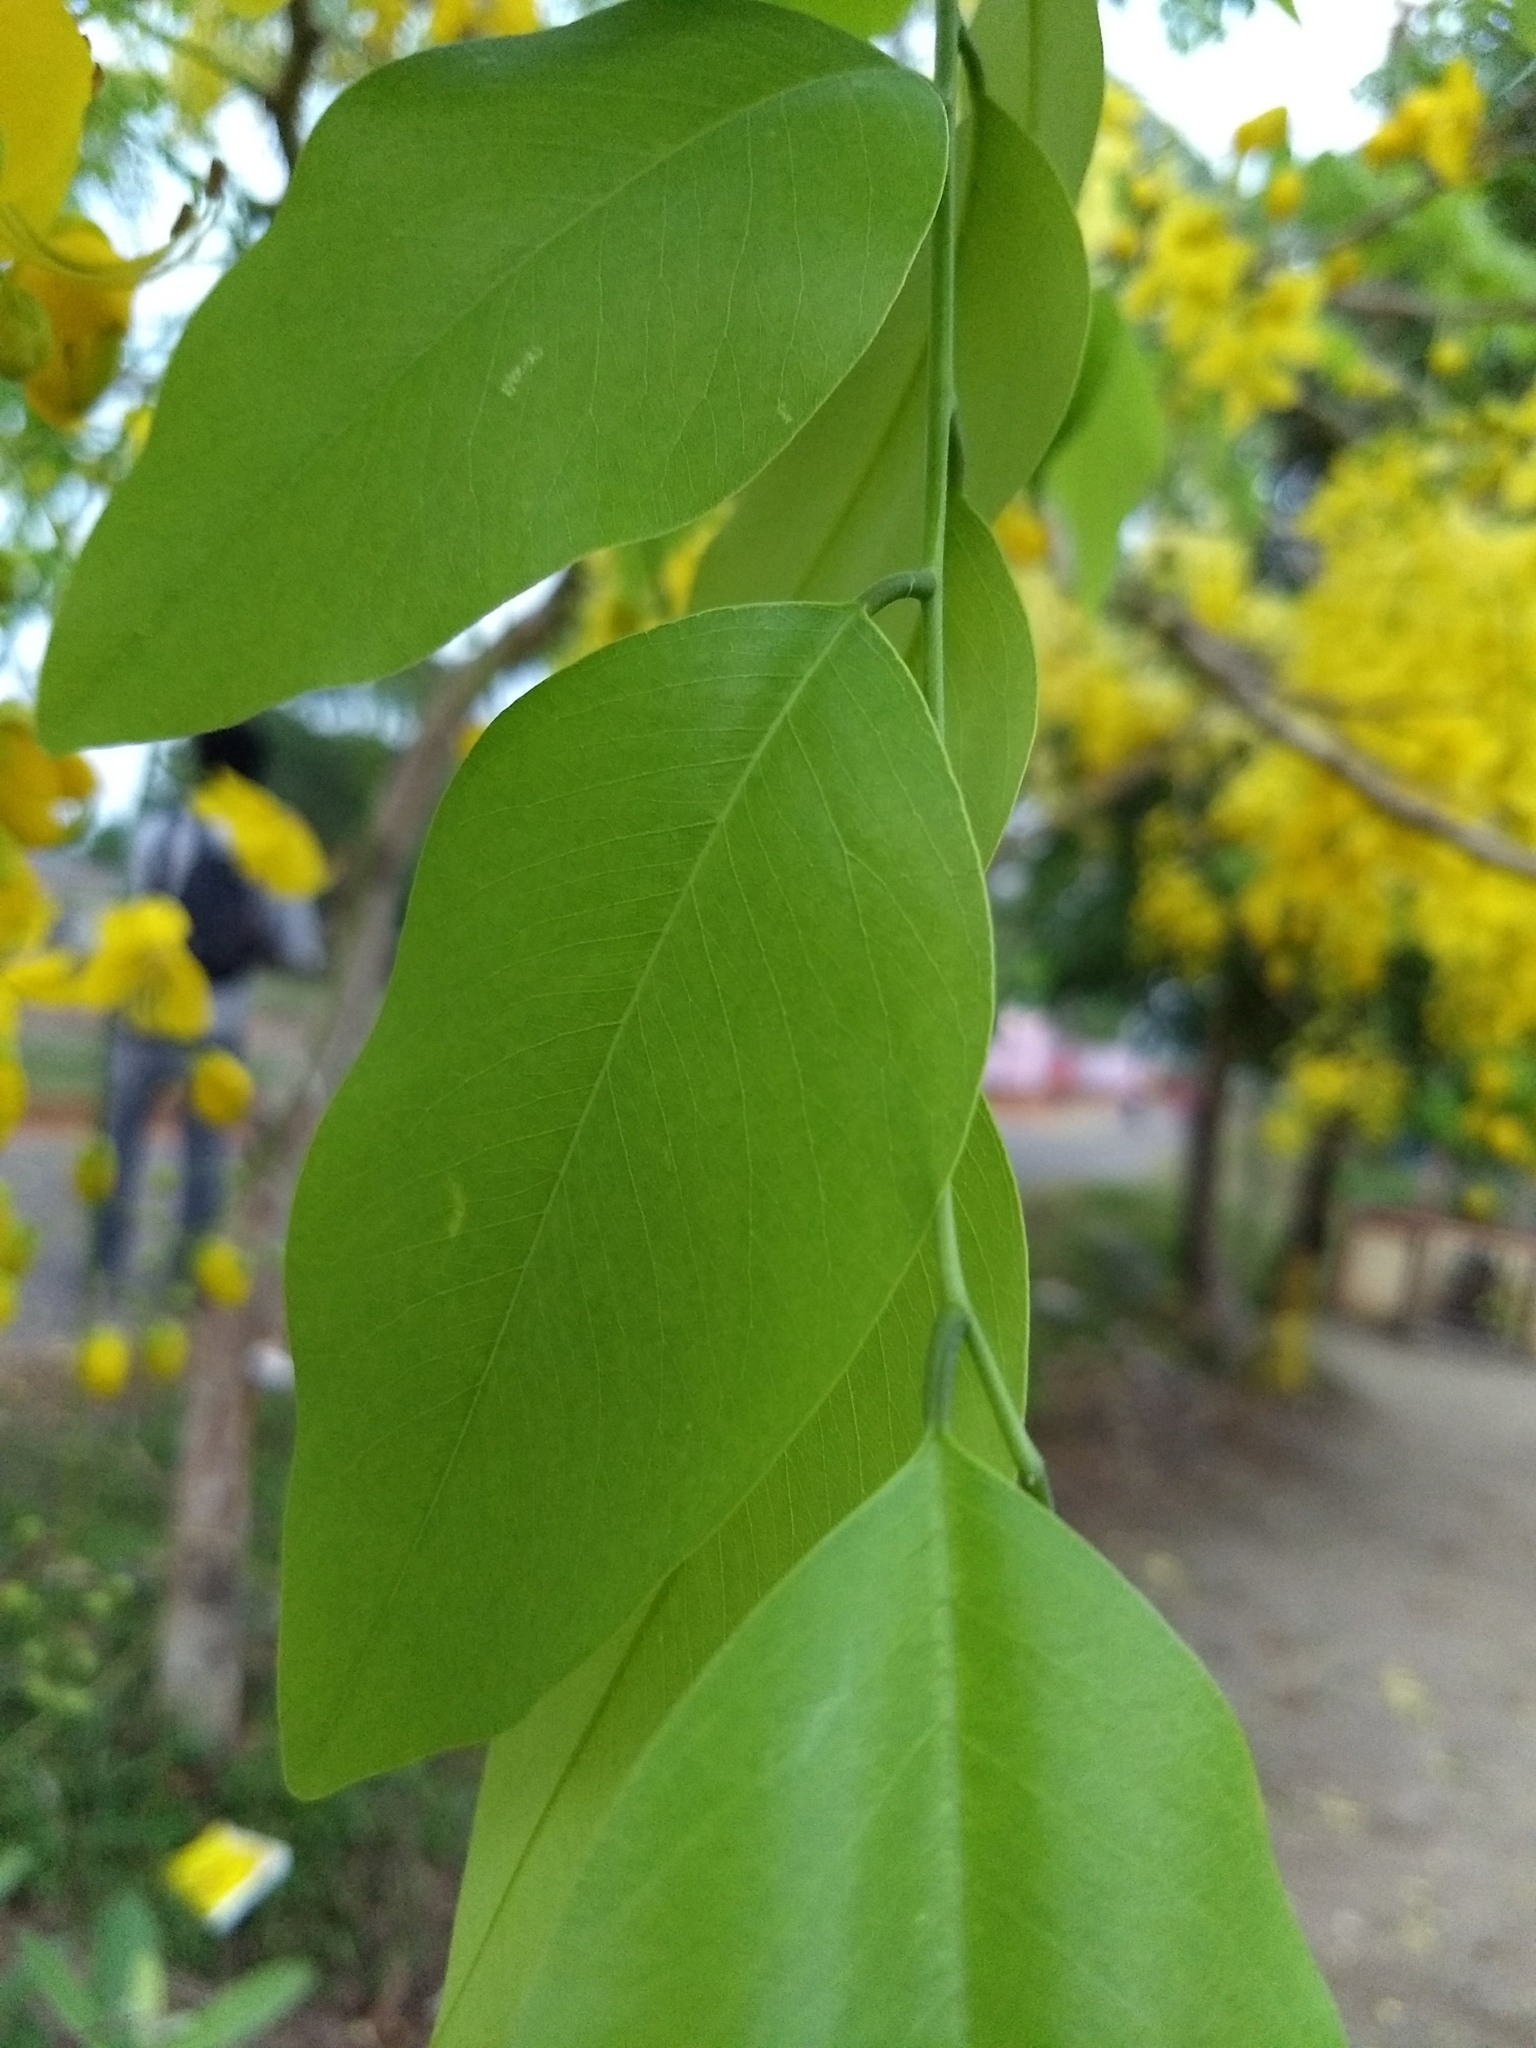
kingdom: Plantae
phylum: Tracheophyta
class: Magnoliopsida
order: Fabales
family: Fabaceae
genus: Cassia
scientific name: Cassia fistula
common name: Golden shower
